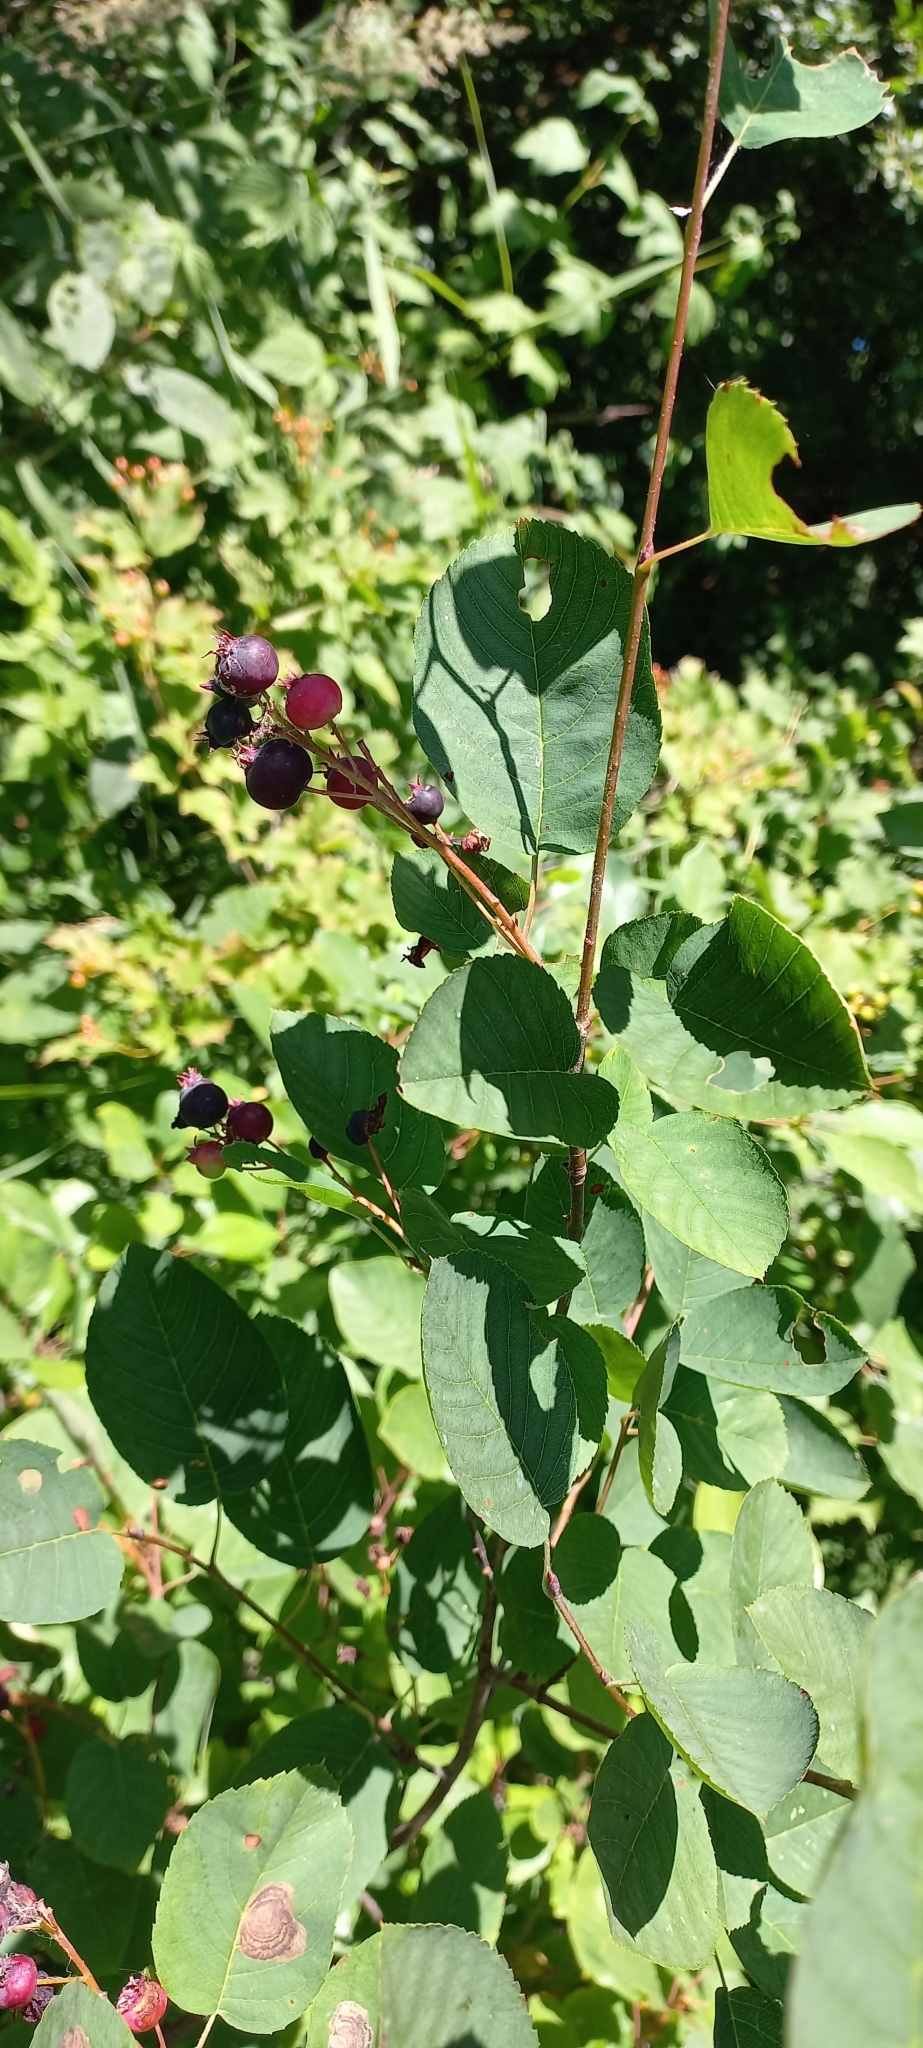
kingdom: Plantae
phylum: Tracheophyta
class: Magnoliopsida
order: Rosales
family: Rosaceae
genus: Amelanchier
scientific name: Amelanchier
